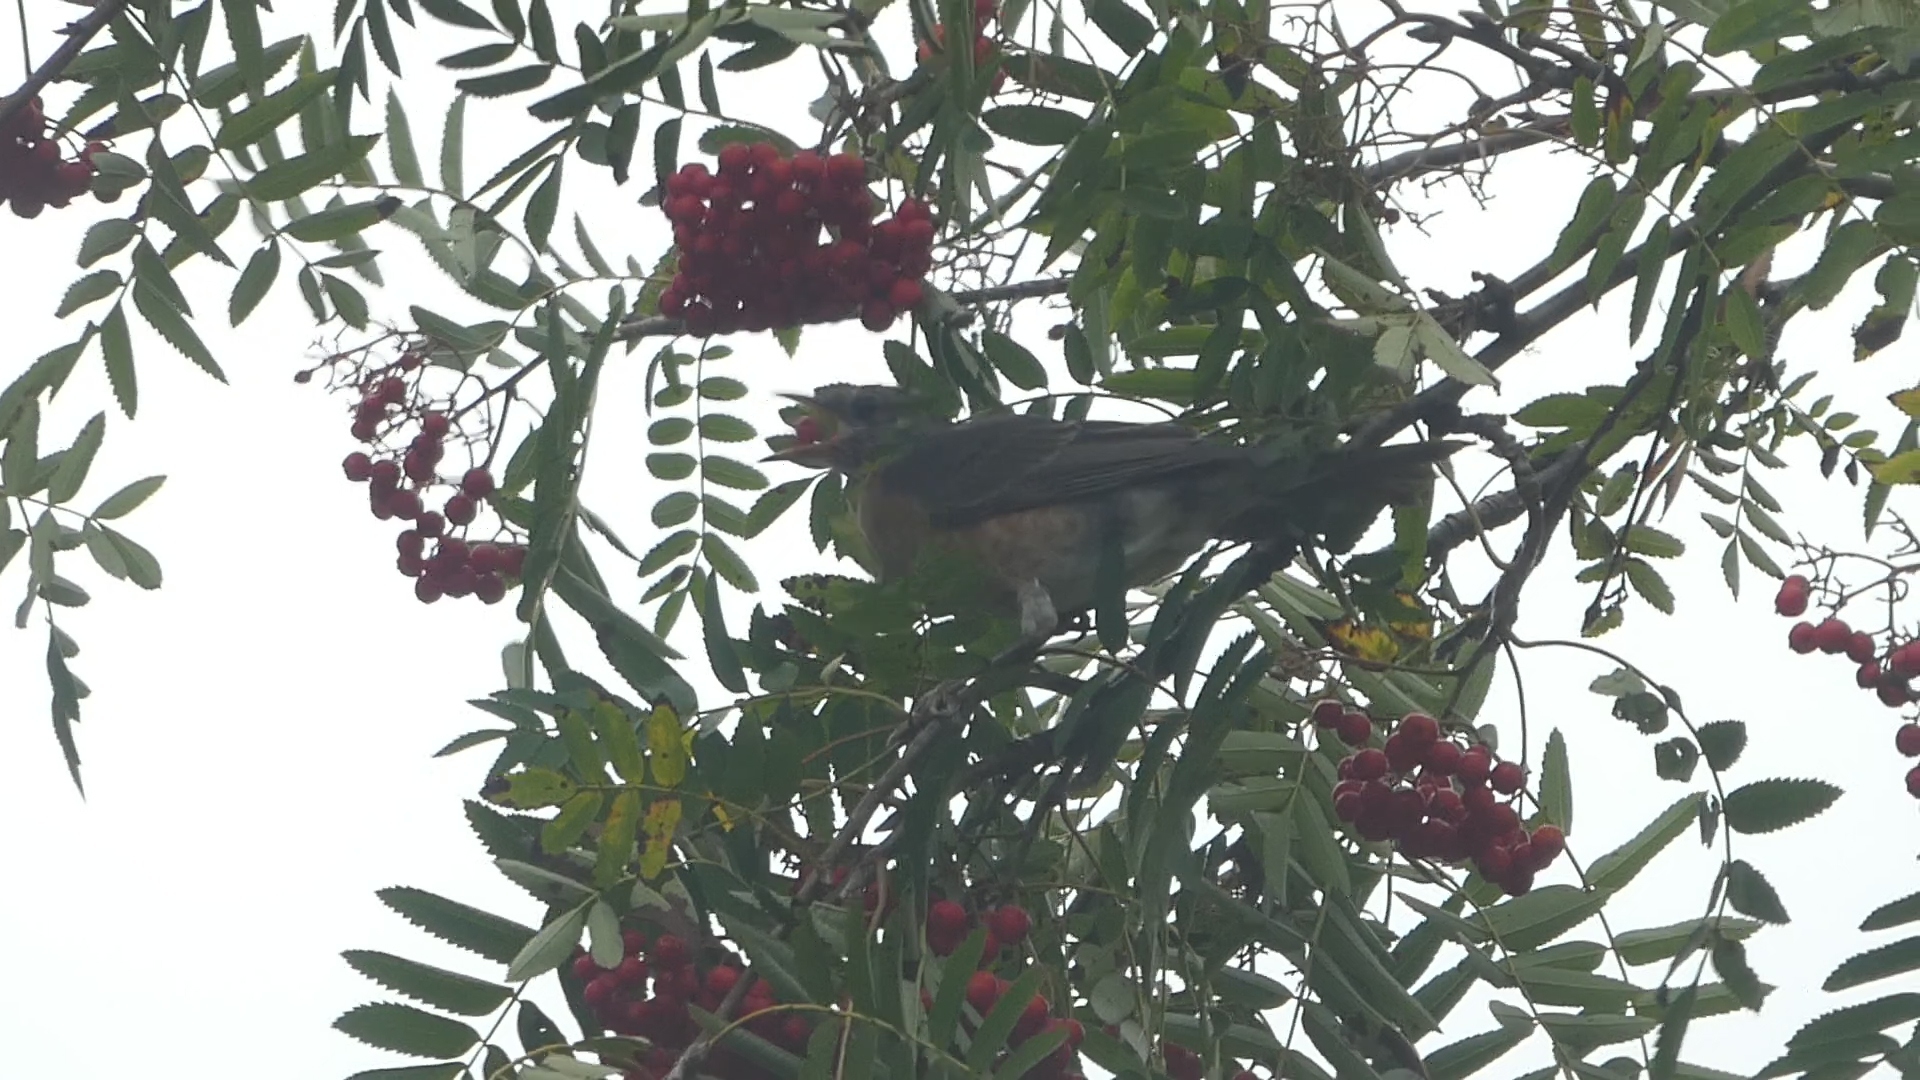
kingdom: Animalia
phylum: Chordata
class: Aves
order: Passeriformes
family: Turdidae
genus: Turdus
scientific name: Turdus migratorius
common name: American robin
